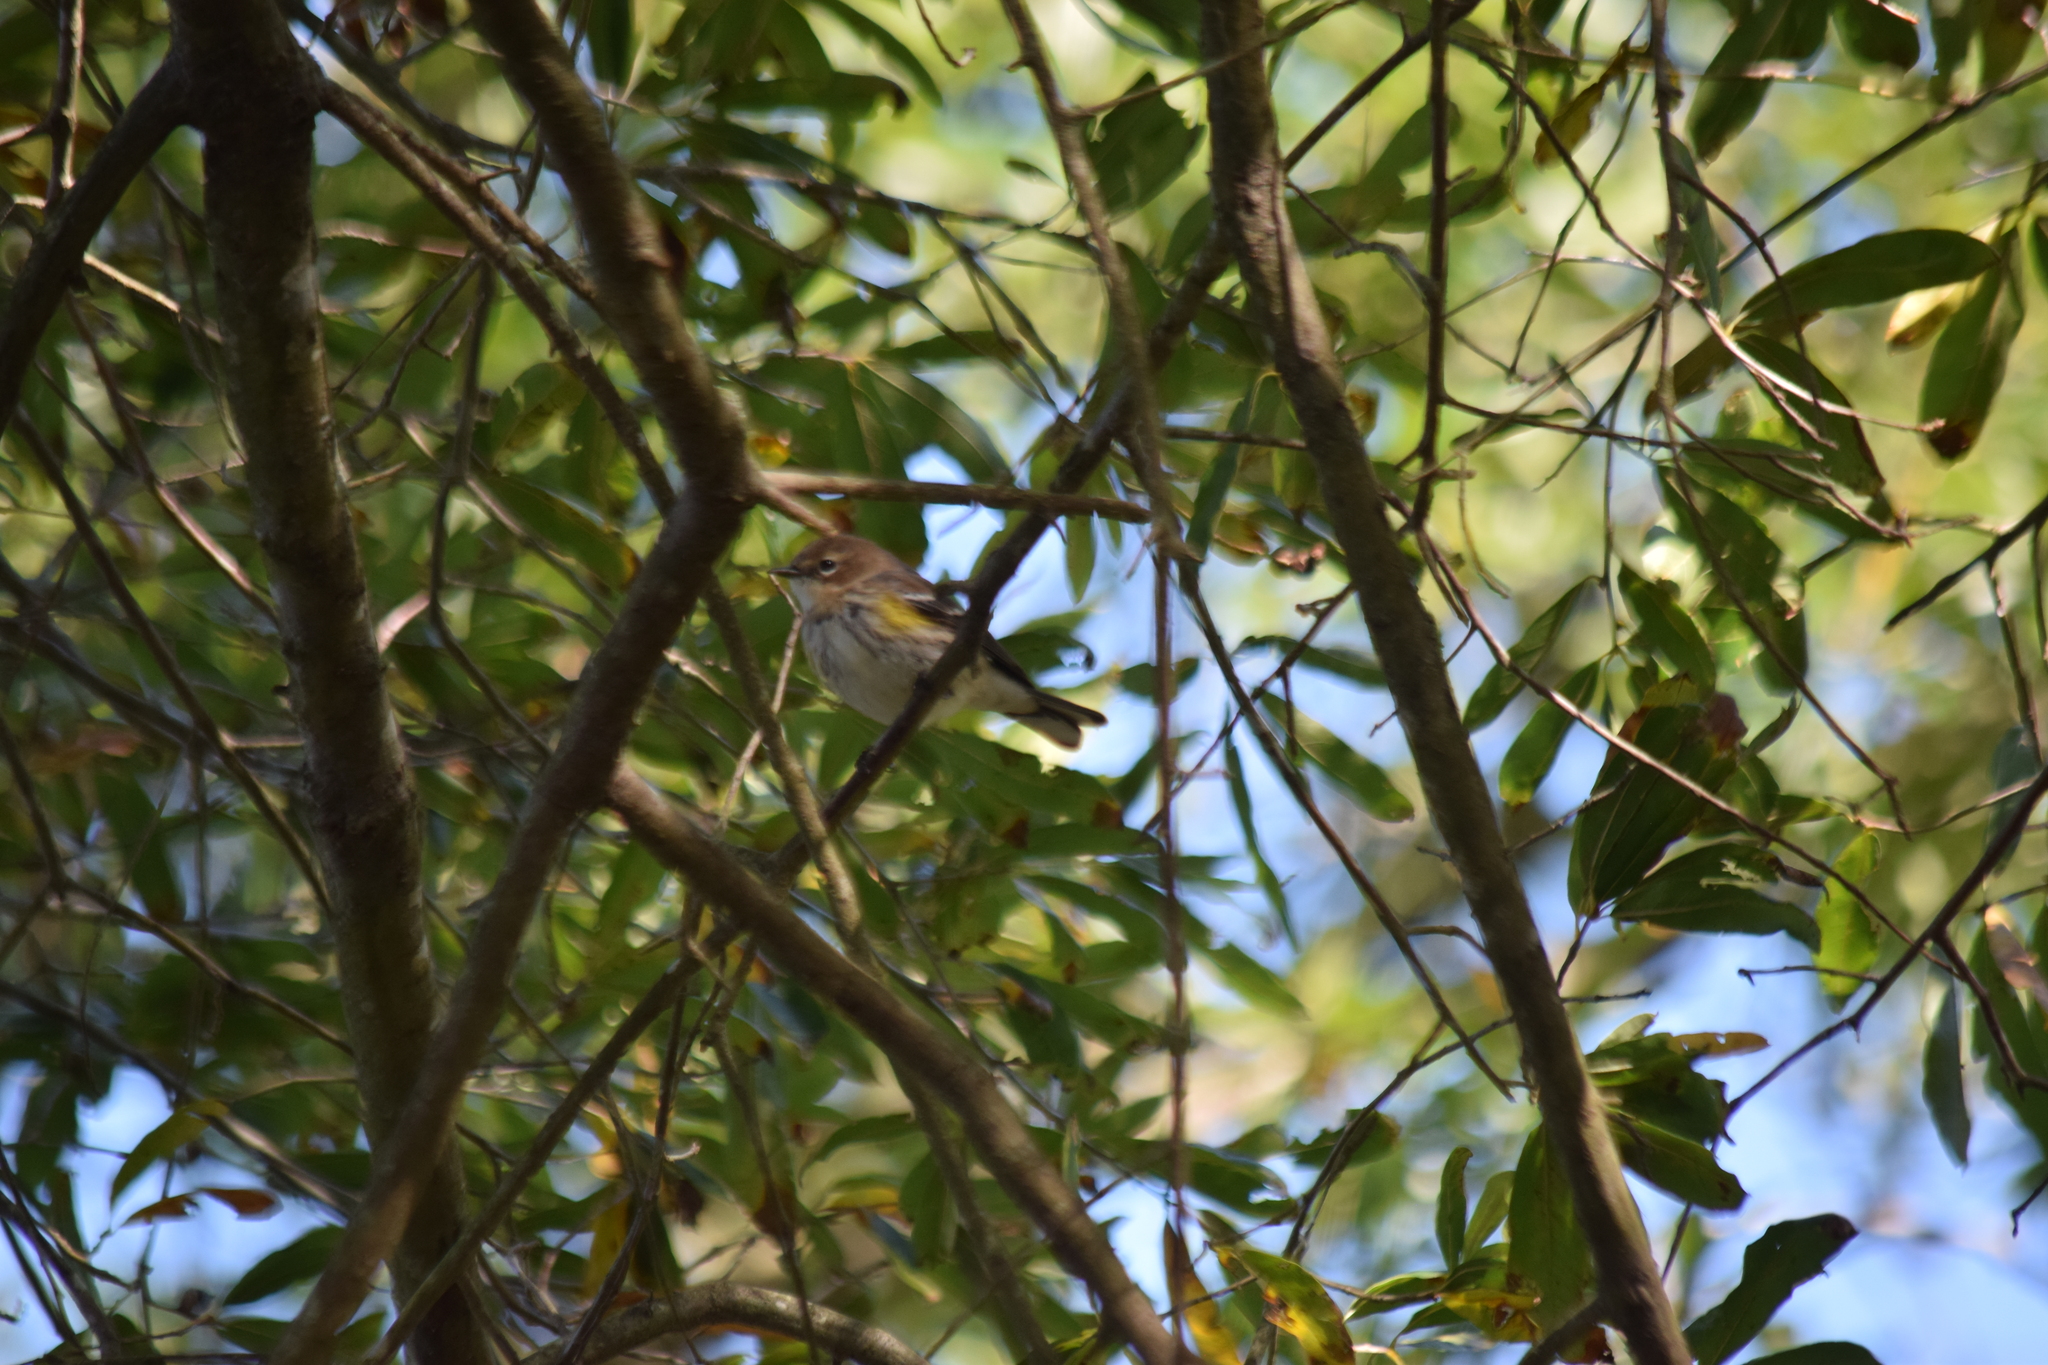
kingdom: Animalia
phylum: Chordata
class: Aves
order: Passeriformes
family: Parulidae
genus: Setophaga
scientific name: Setophaga coronata
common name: Myrtle warbler
